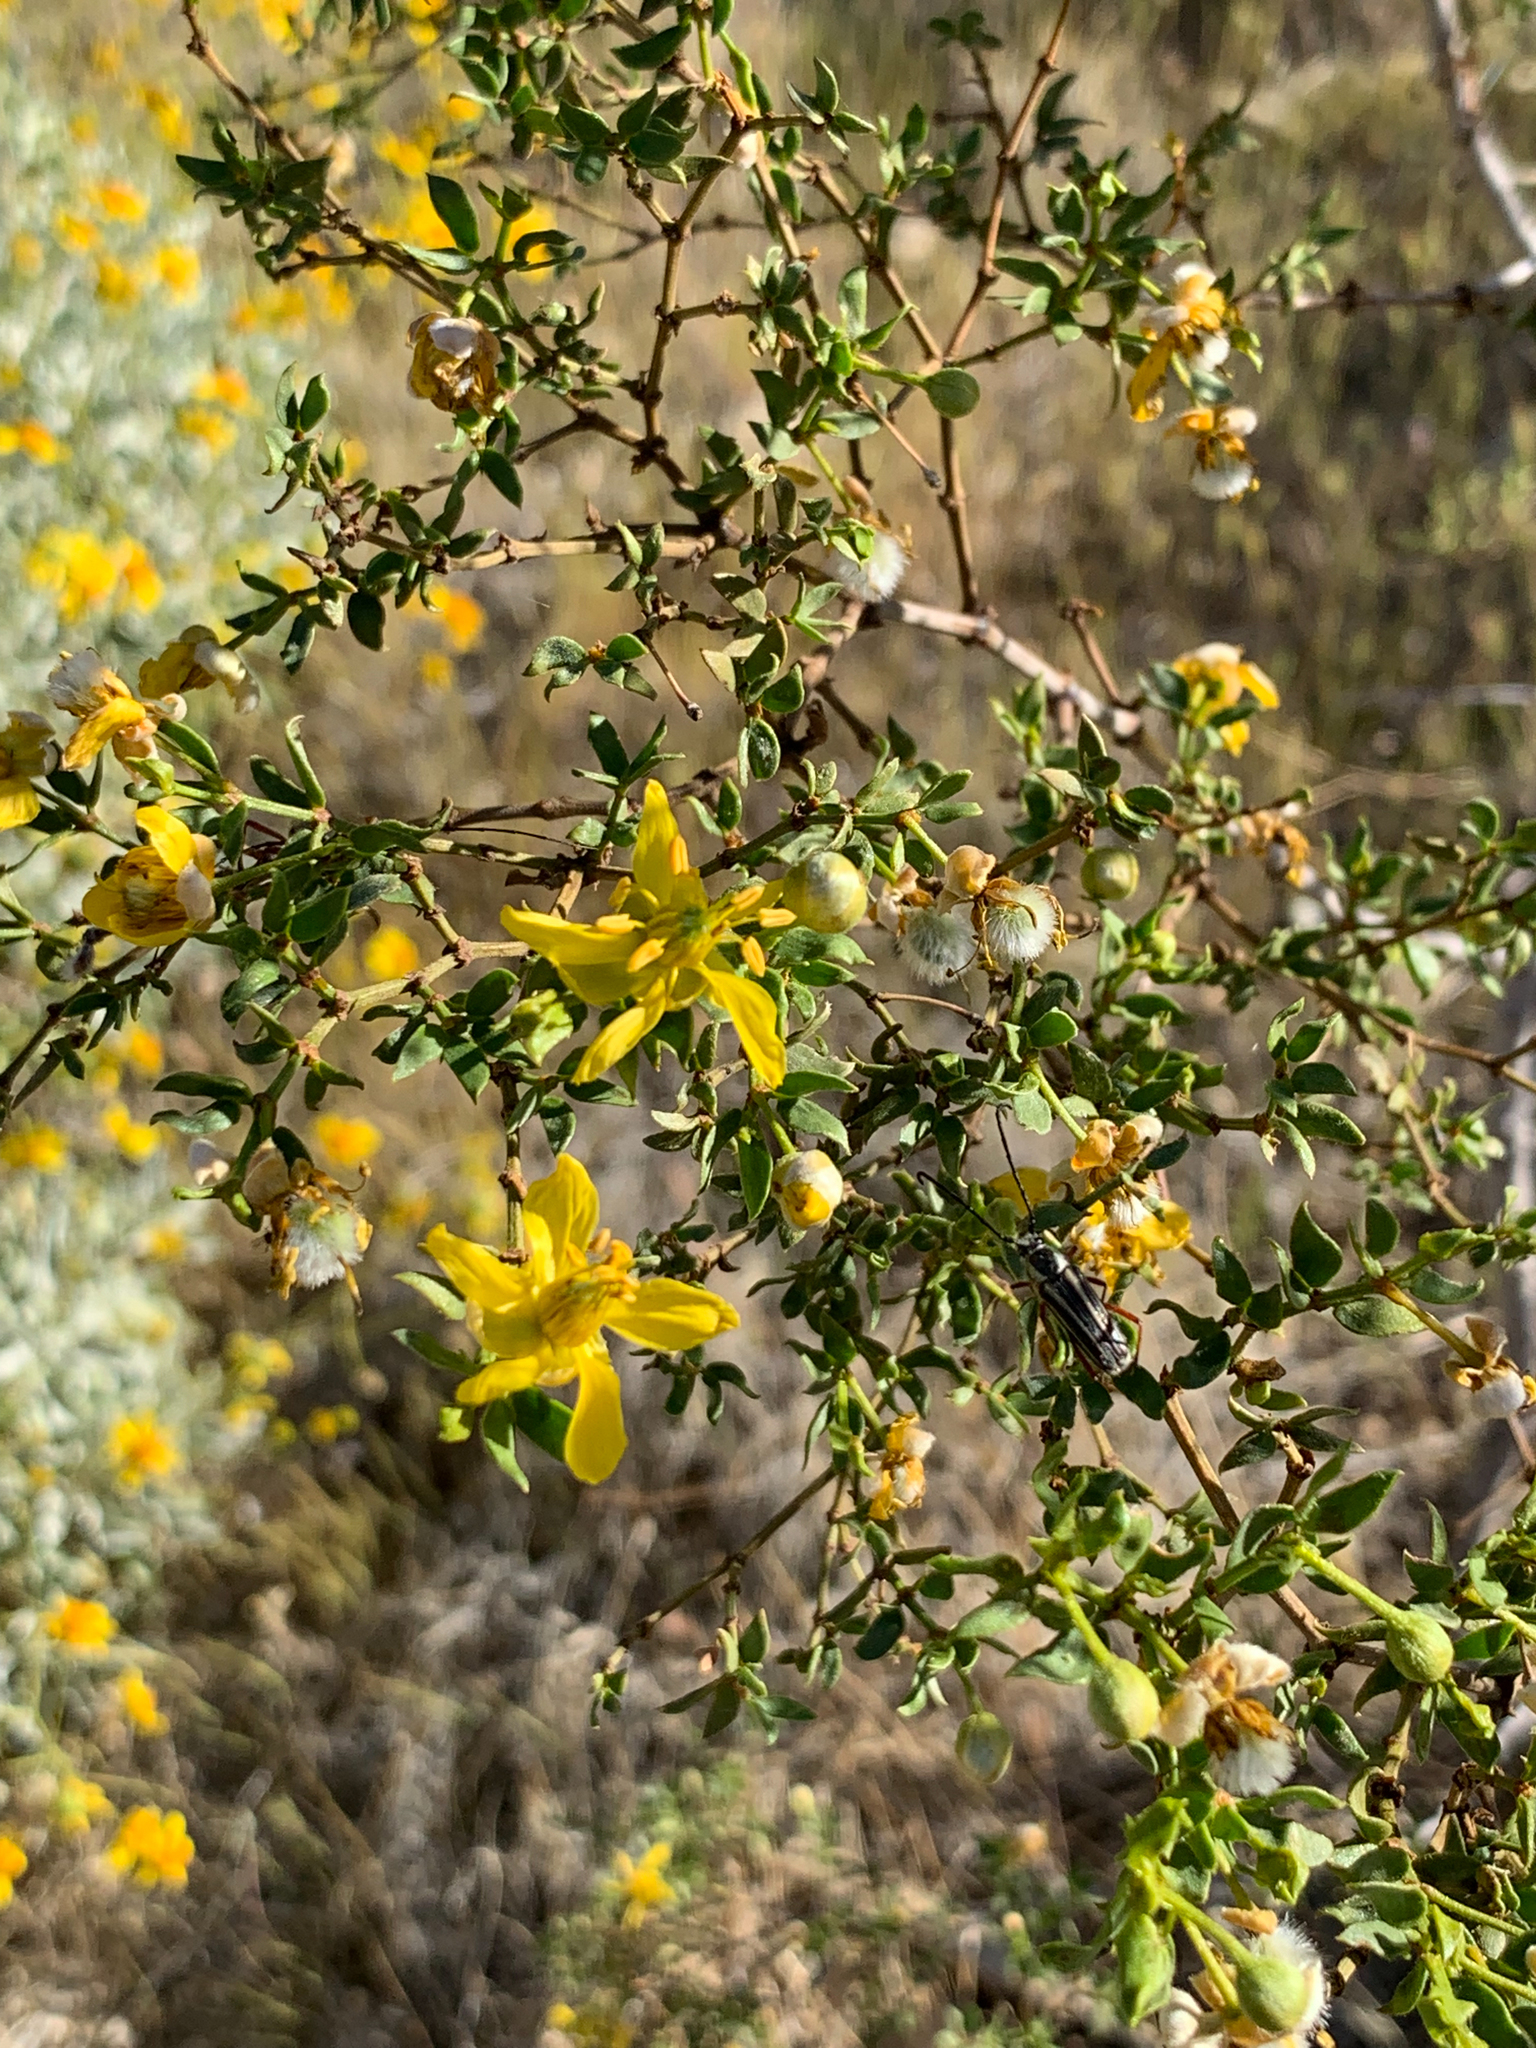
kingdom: Plantae
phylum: Tracheophyta
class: Magnoliopsida
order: Zygophyllales
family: Zygophyllaceae
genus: Larrea
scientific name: Larrea tridentata
